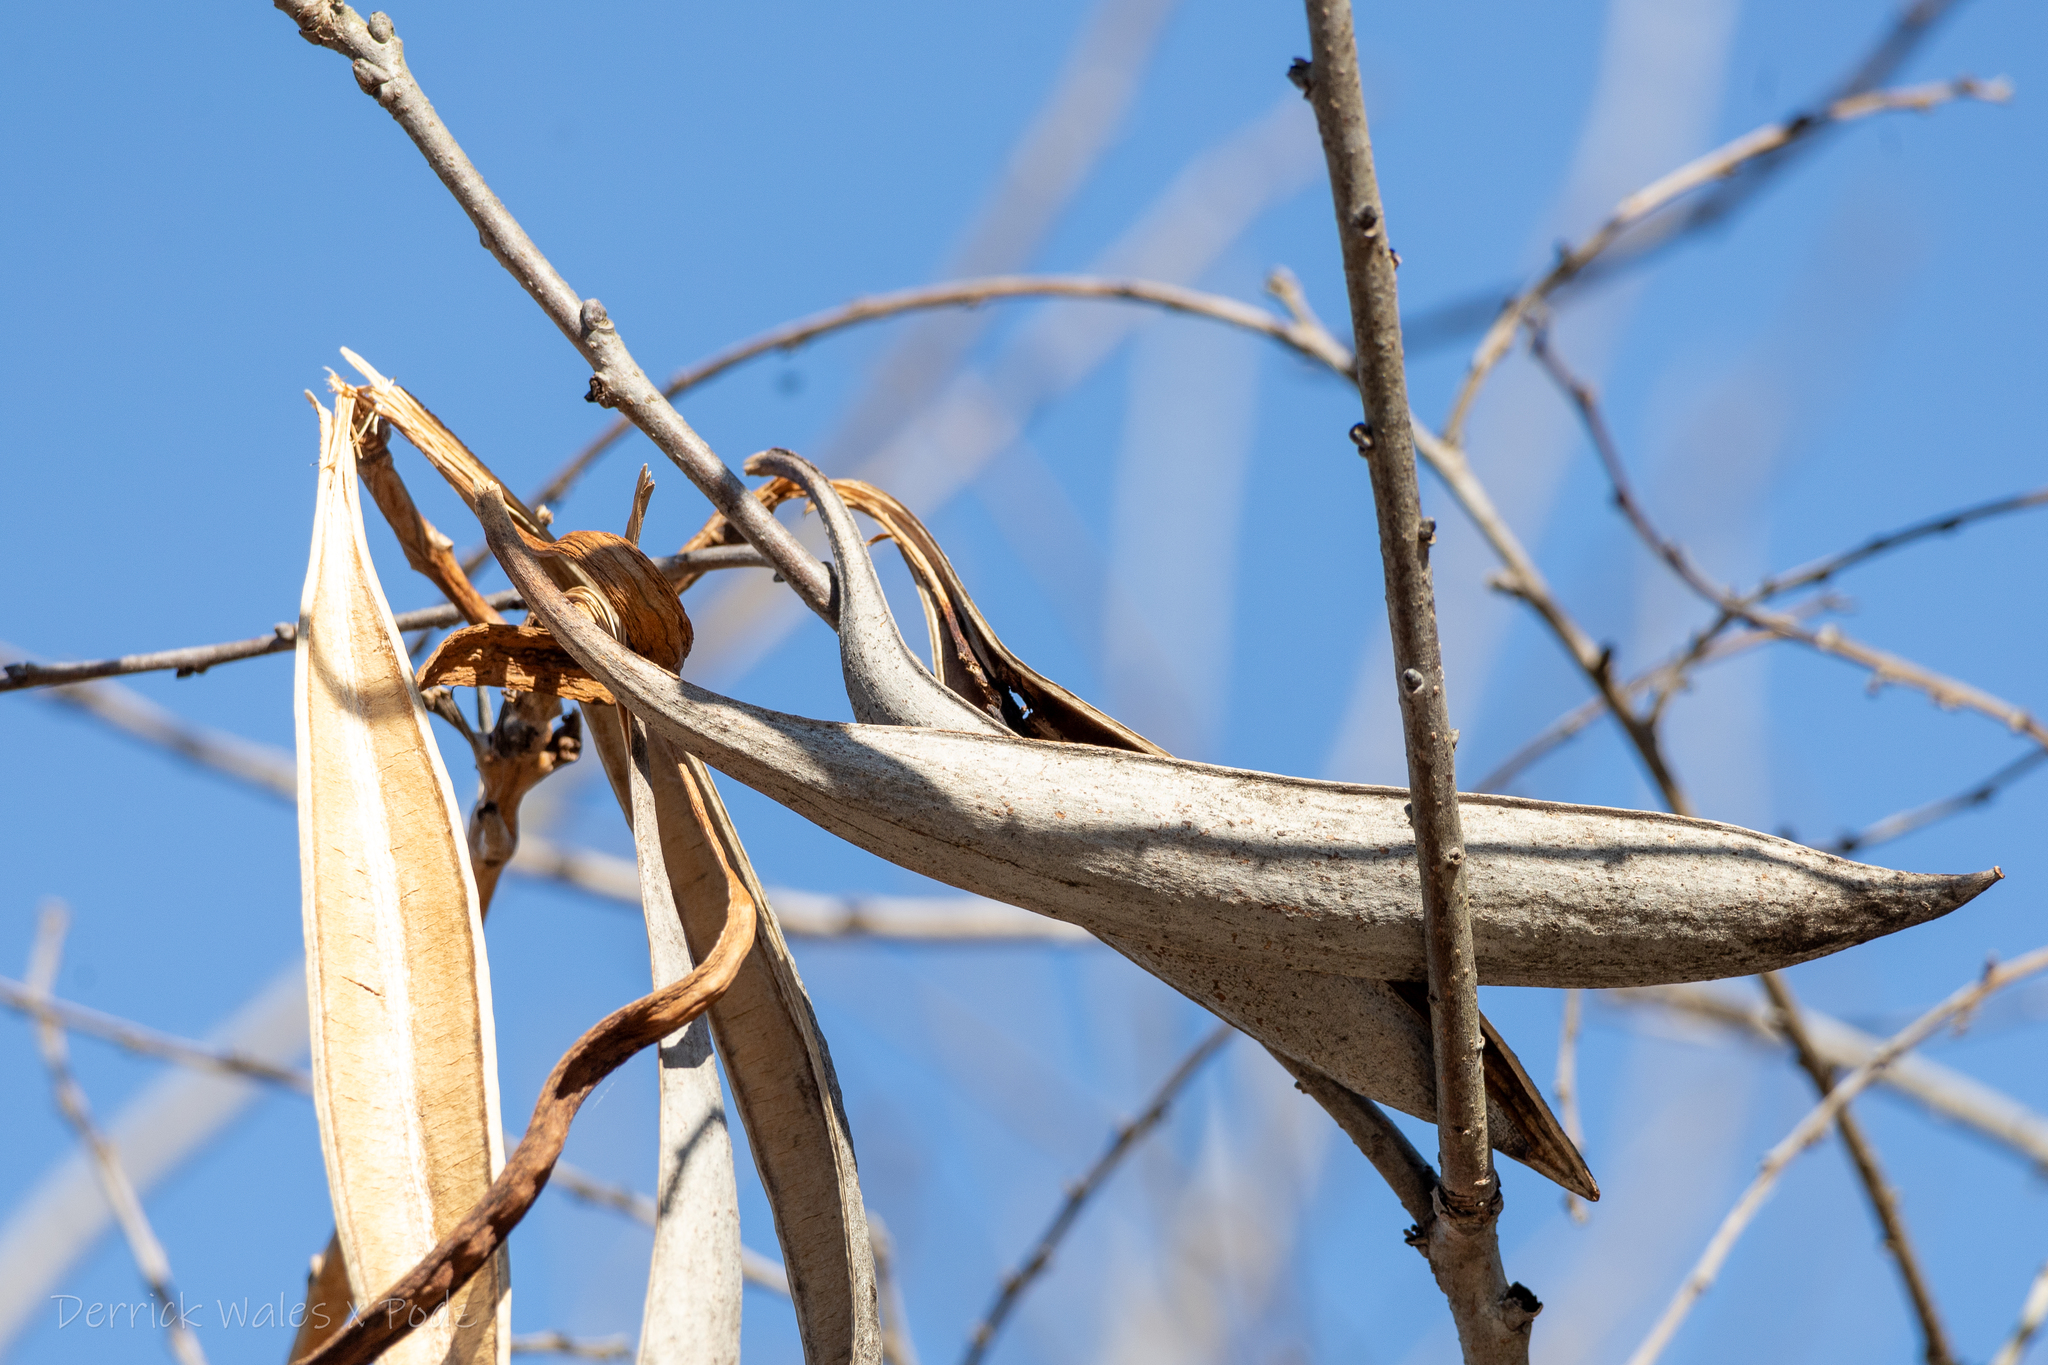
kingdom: Plantae
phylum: Tracheophyta
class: Magnoliopsida
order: Lamiales
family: Bignoniaceae
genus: Campsis
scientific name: Campsis radicans
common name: Trumpet-creeper
